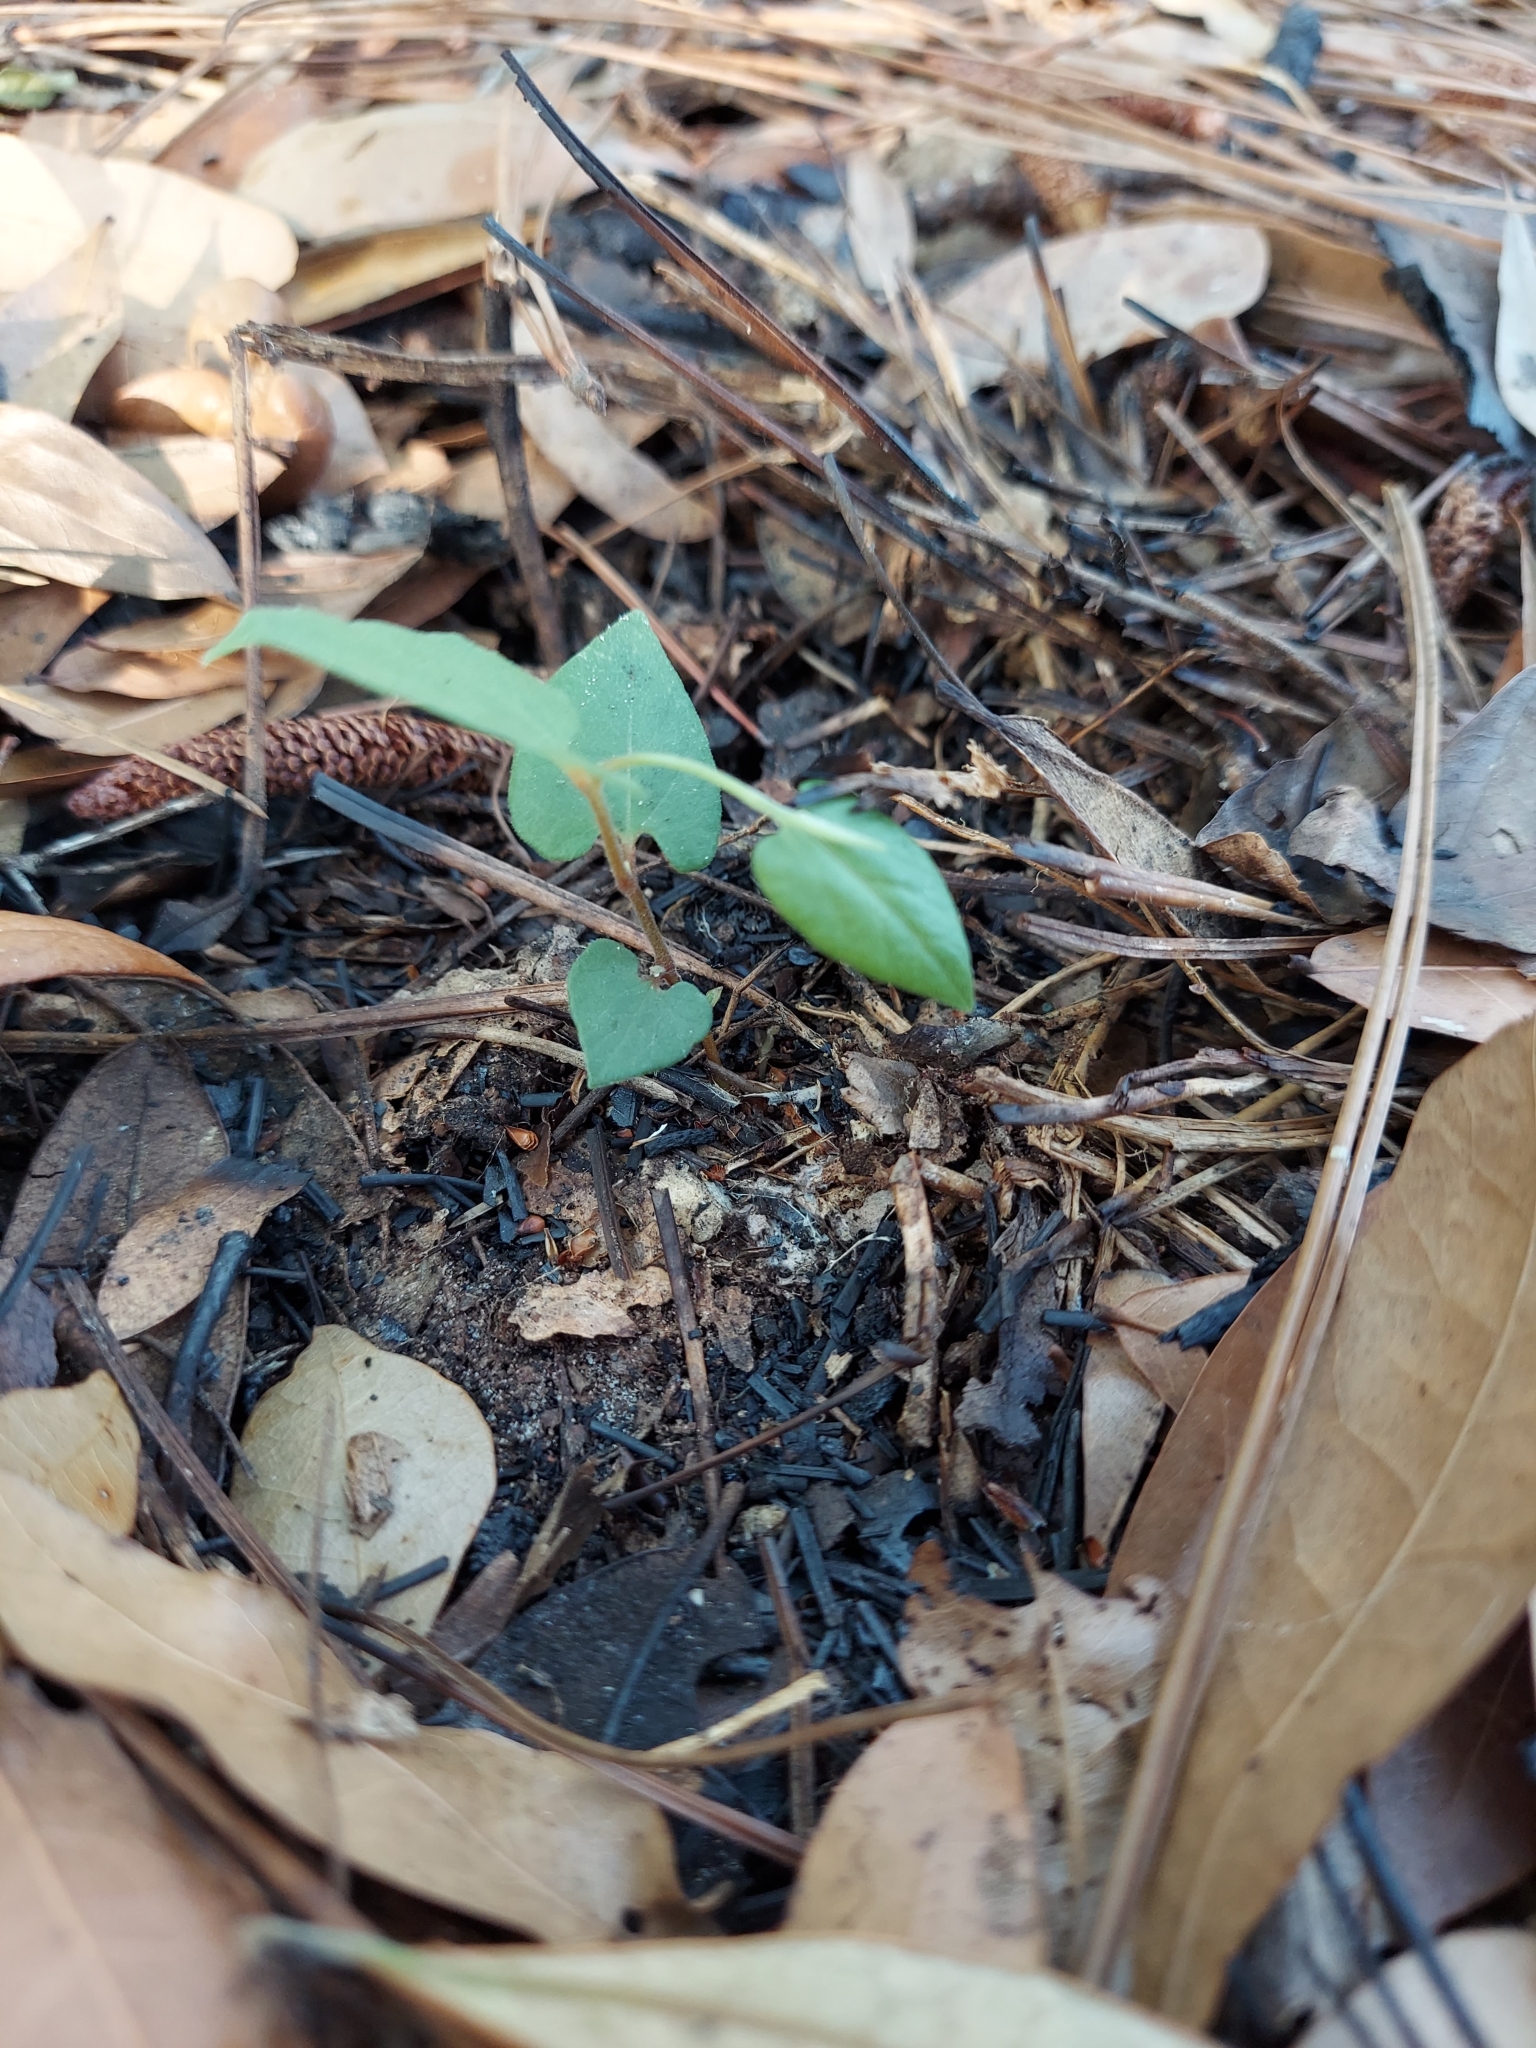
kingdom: Plantae
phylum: Tracheophyta
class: Magnoliopsida
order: Piperales
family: Aristolochiaceae
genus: Endodeca
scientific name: Endodeca serpentaria
